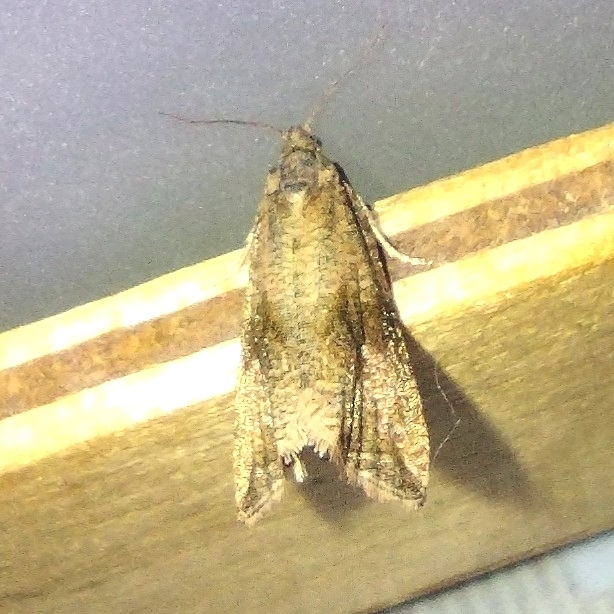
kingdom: Animalia
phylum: Arthropoda
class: Insecta
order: Lepidoptera
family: Tortricidae
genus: Celypha
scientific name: Celypha striana
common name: Barred marble
